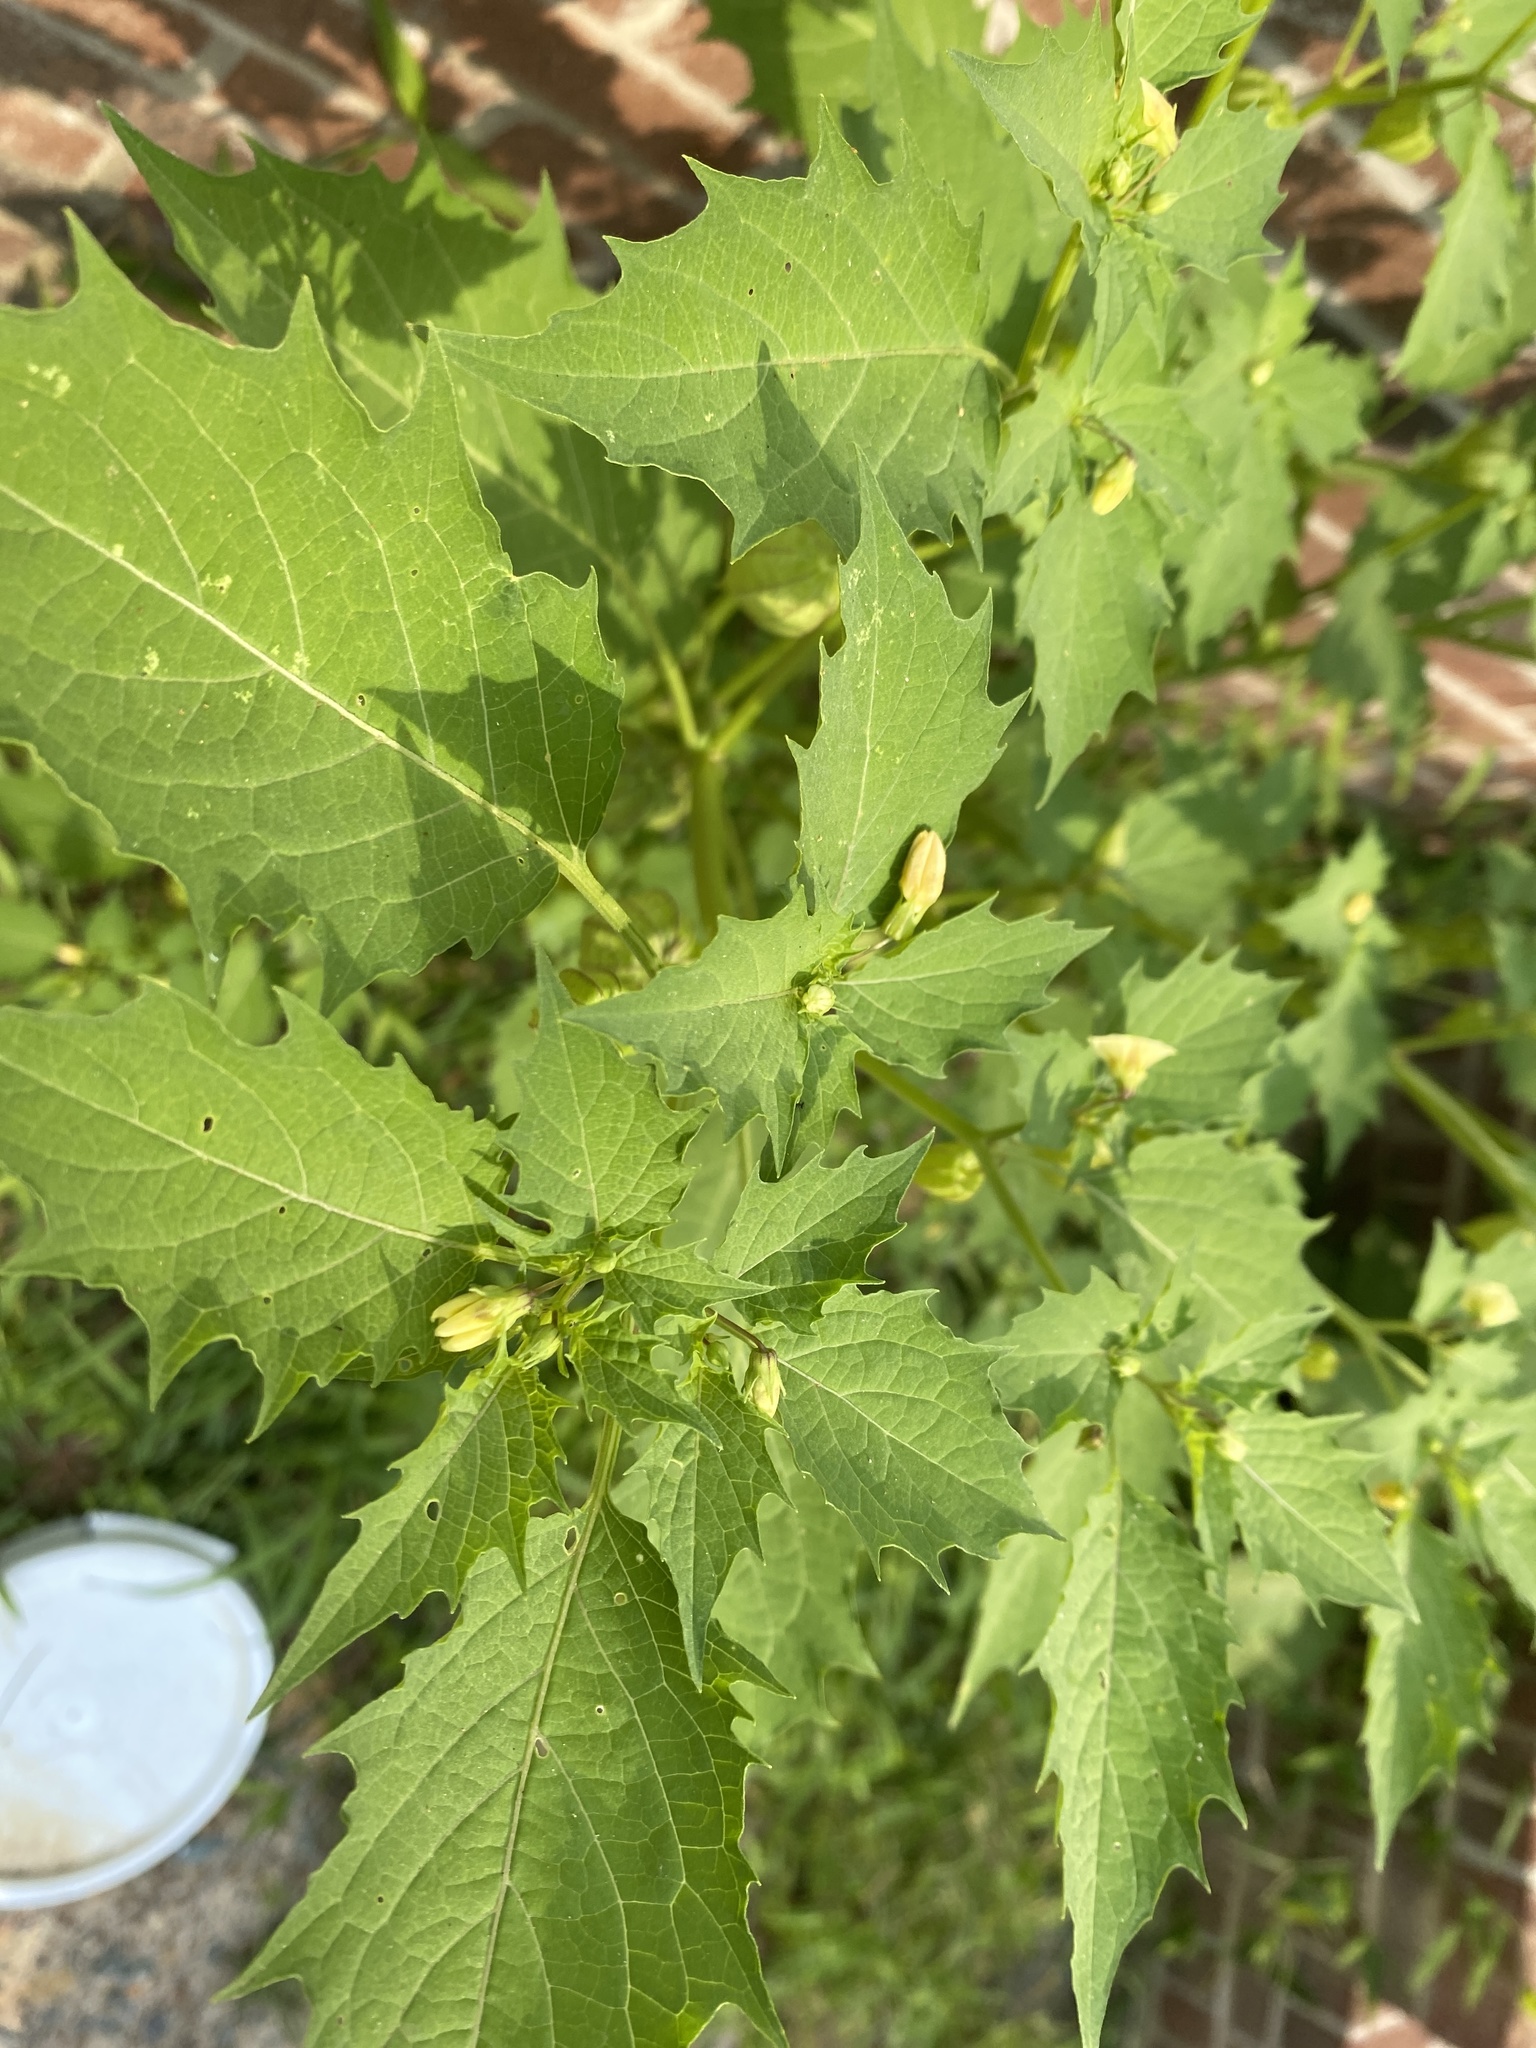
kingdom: Plantae
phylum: Tracheophyta
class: Magnoliopsida
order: Solanales
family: Solanaceae
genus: Physalis
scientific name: Physalis angulata
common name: Angular winter-cherry
